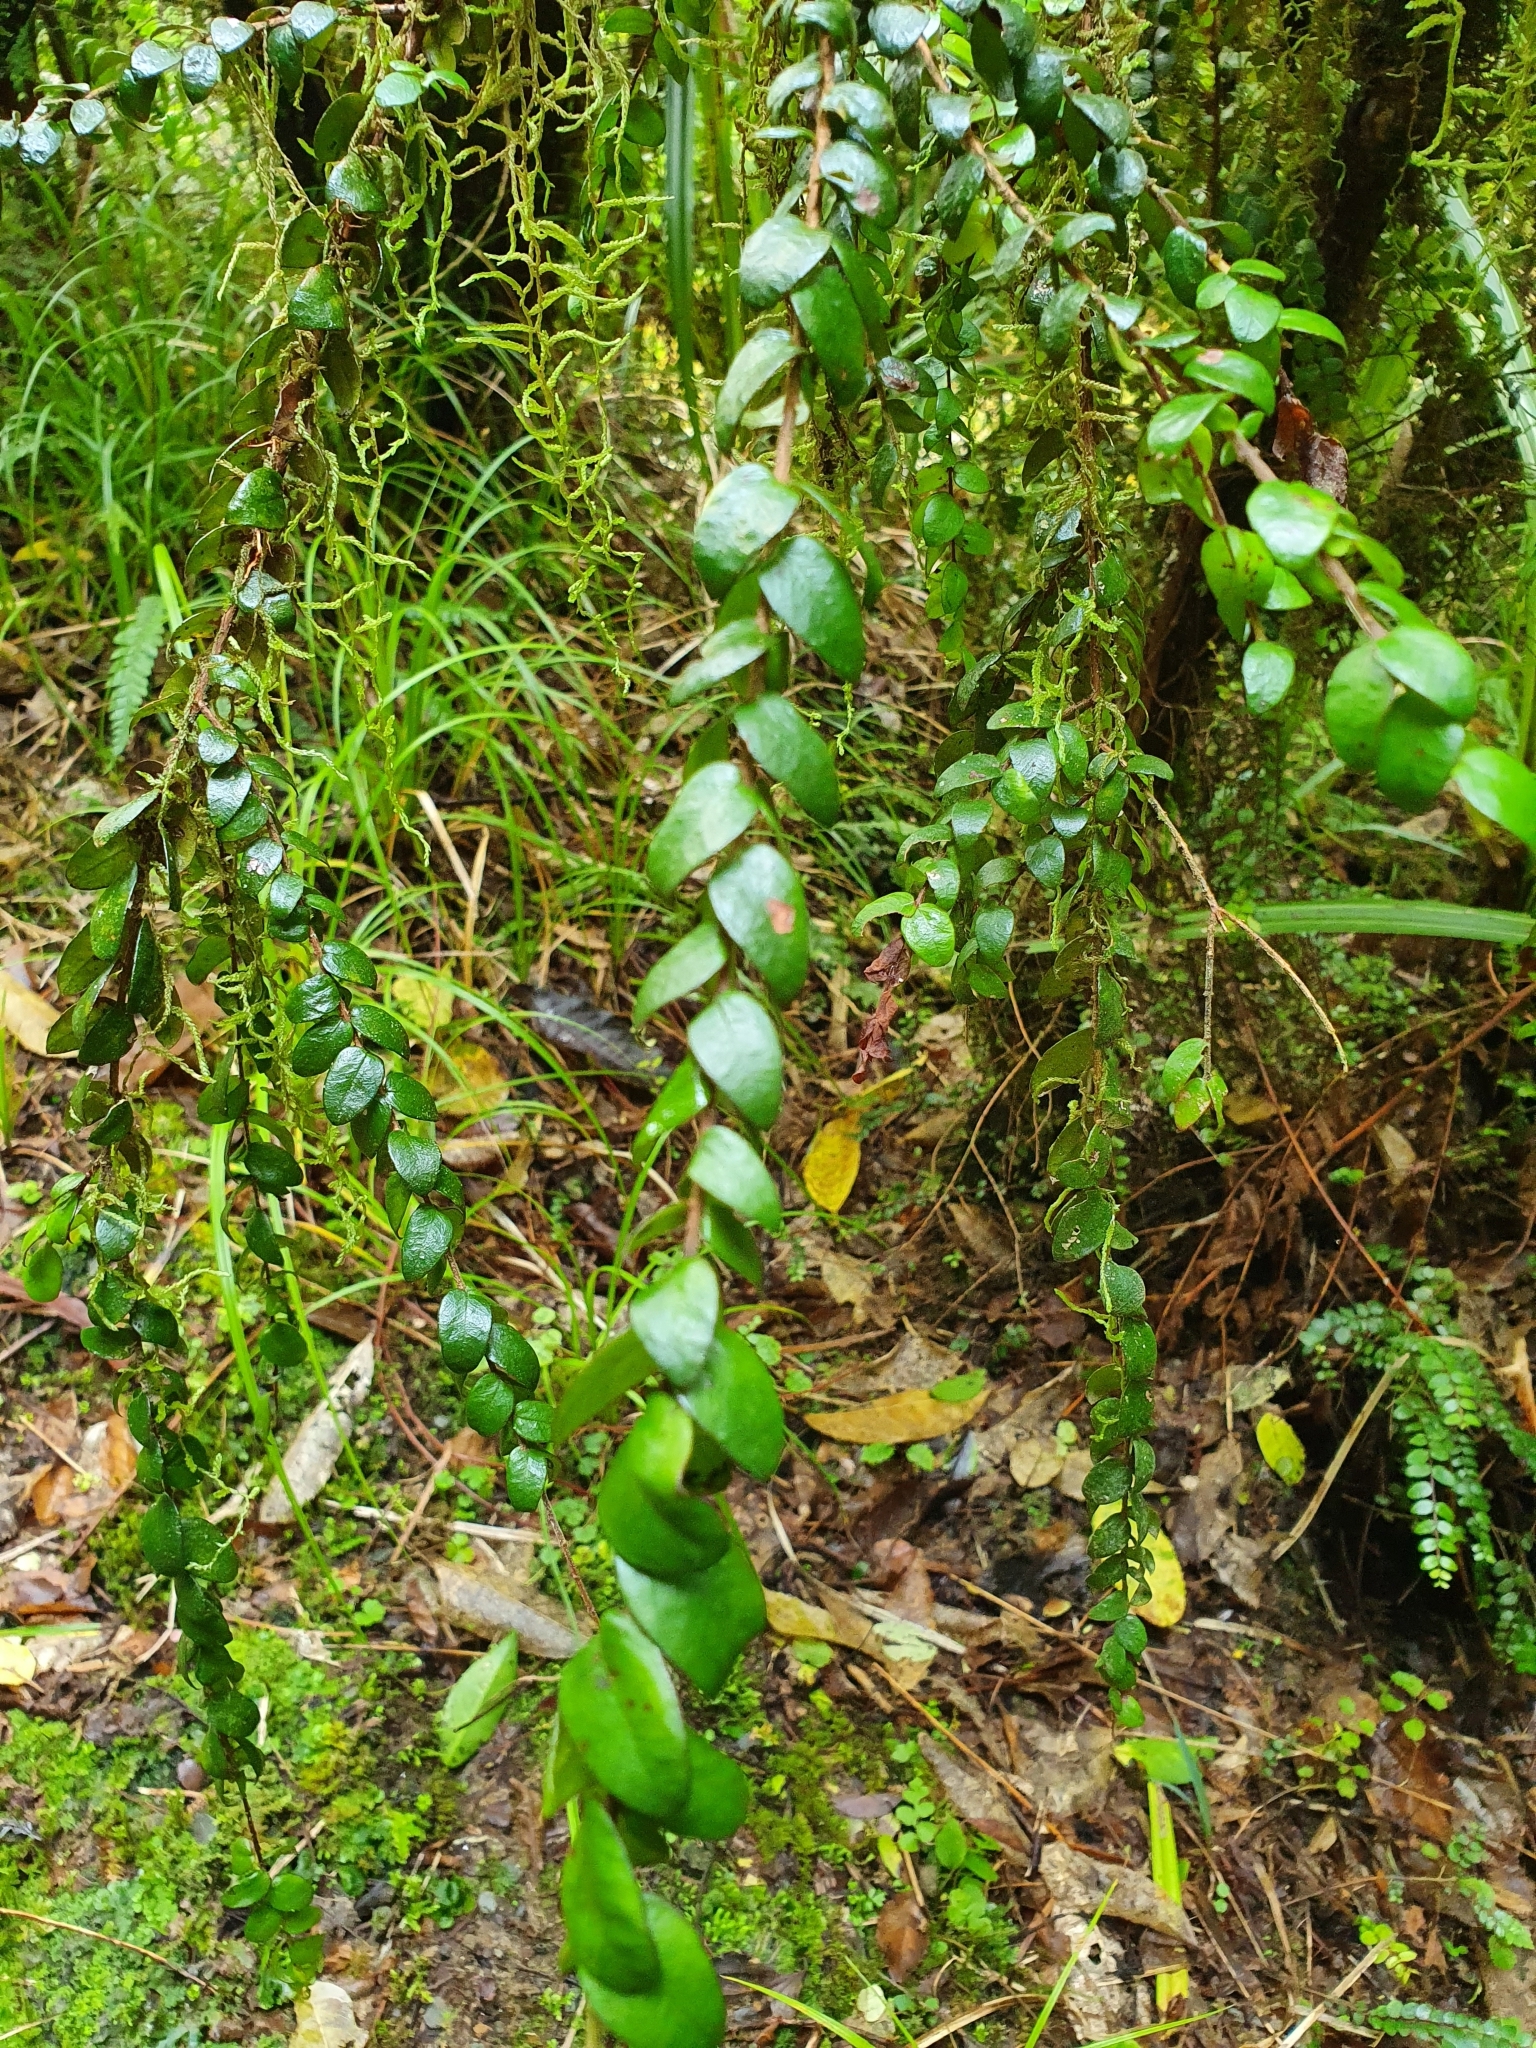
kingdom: Plantae
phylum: Tracheophyta
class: Magnoliopsida
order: Myrtales
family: Myrtaceae
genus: Metrosideros
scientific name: Metrosideros colensoi
